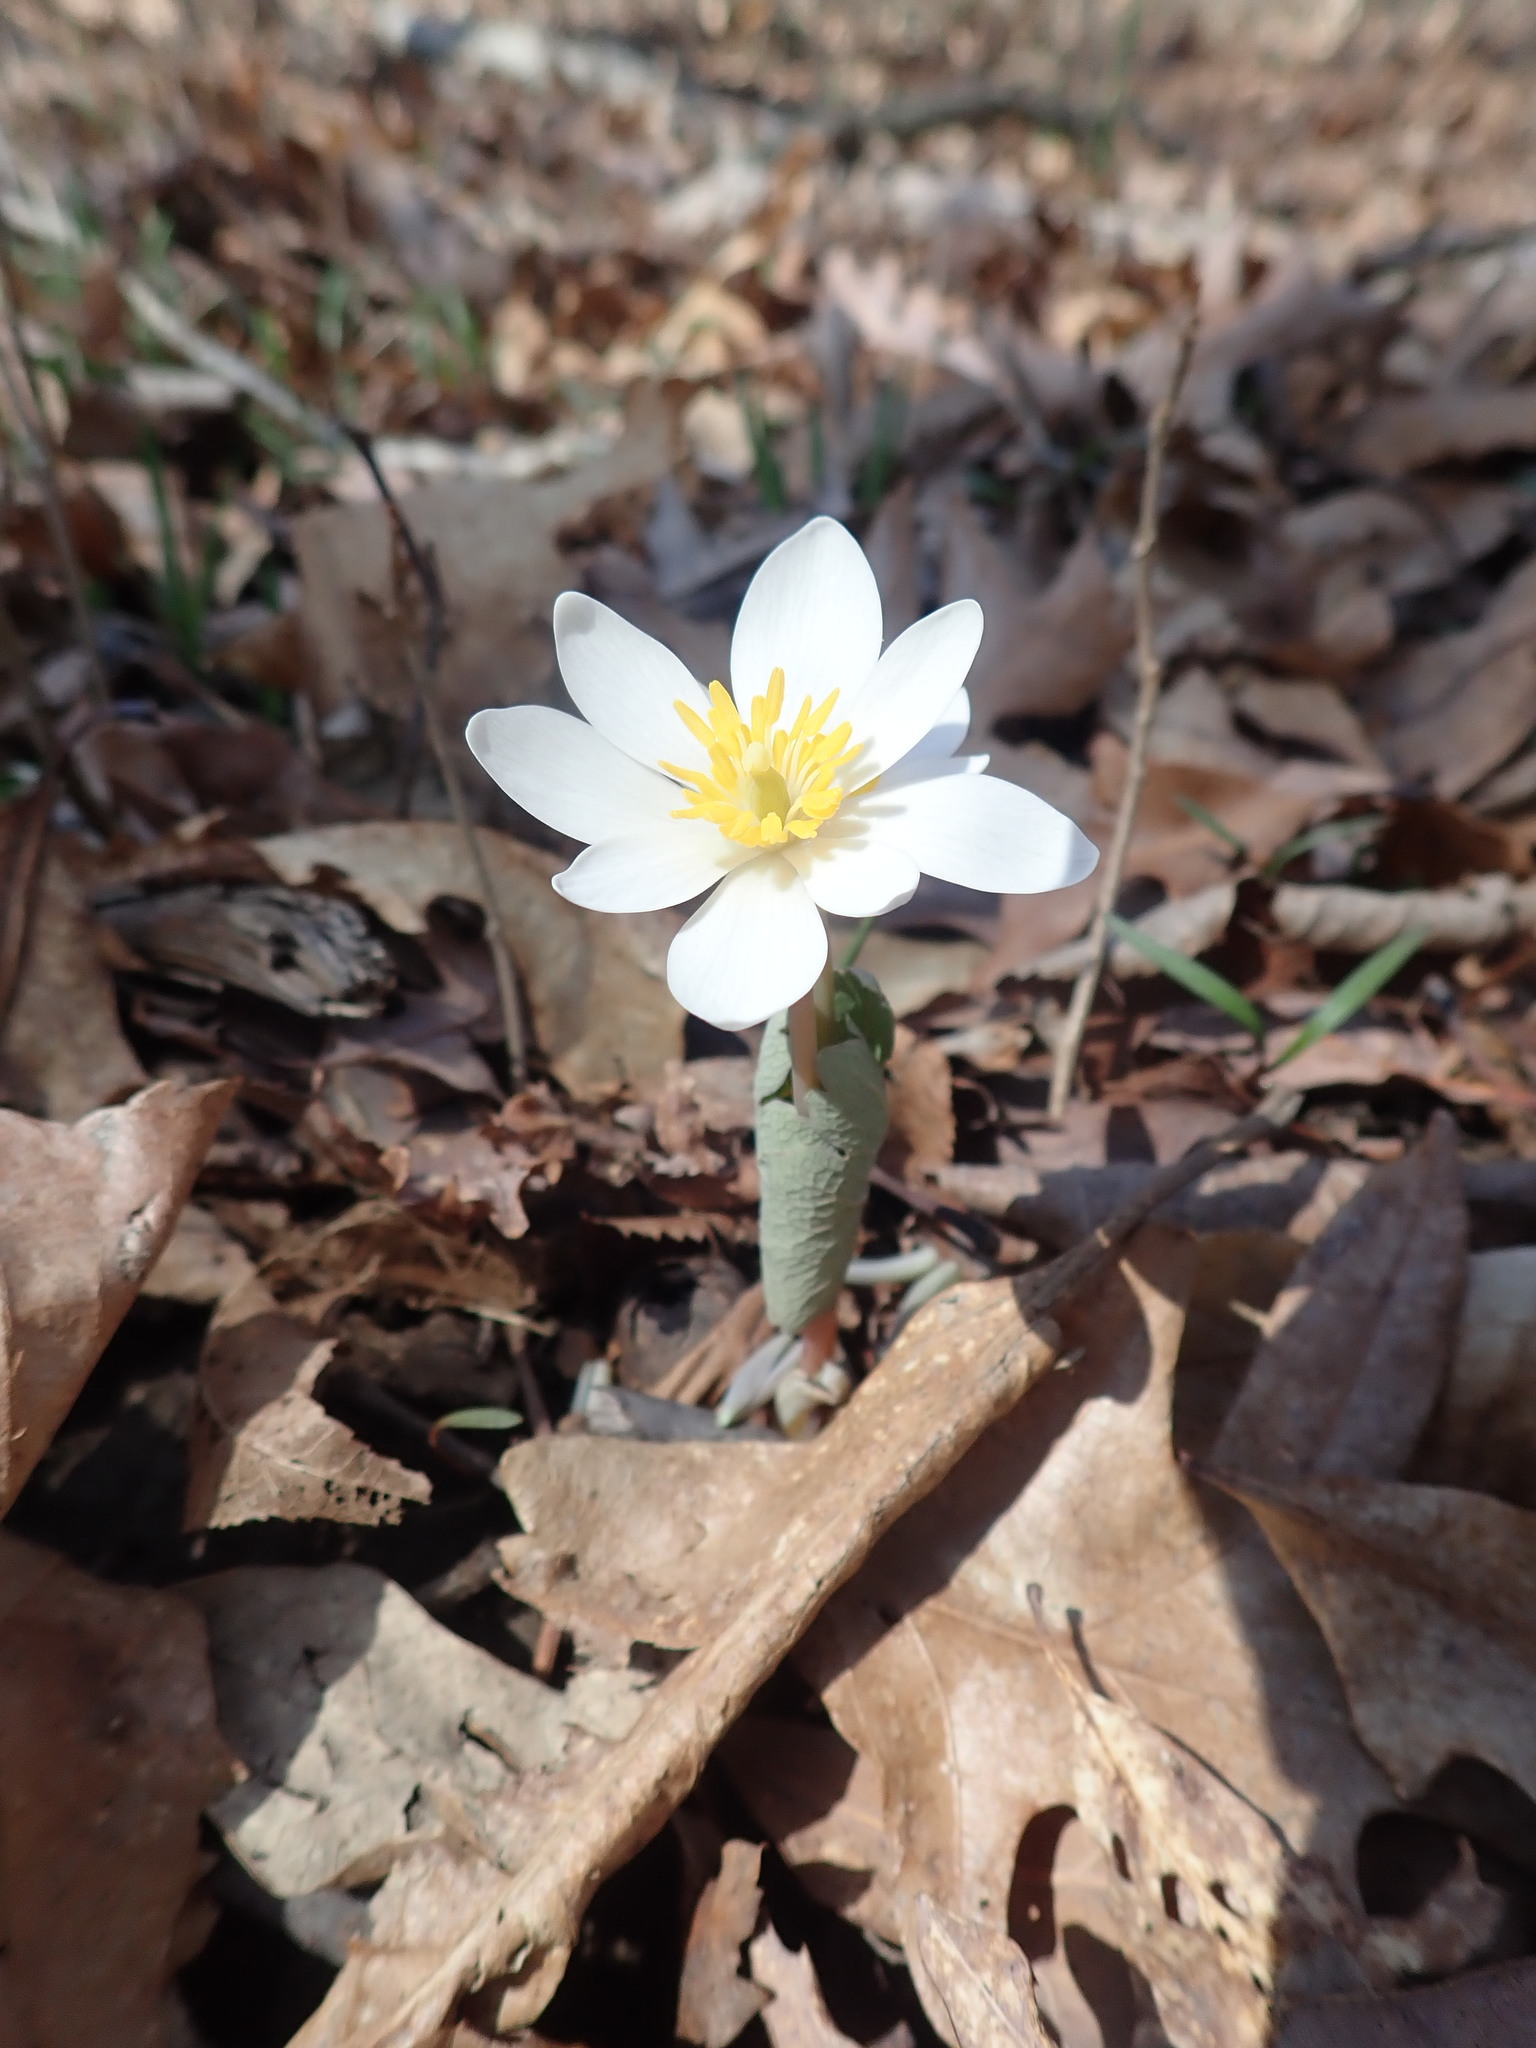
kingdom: Plantae
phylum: Tracheophyta
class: Magnoliopsida
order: Ranunculales
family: Papaveraceae
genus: Sanguinaria
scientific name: Sanguinaria canadensis
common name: Bloodroot
